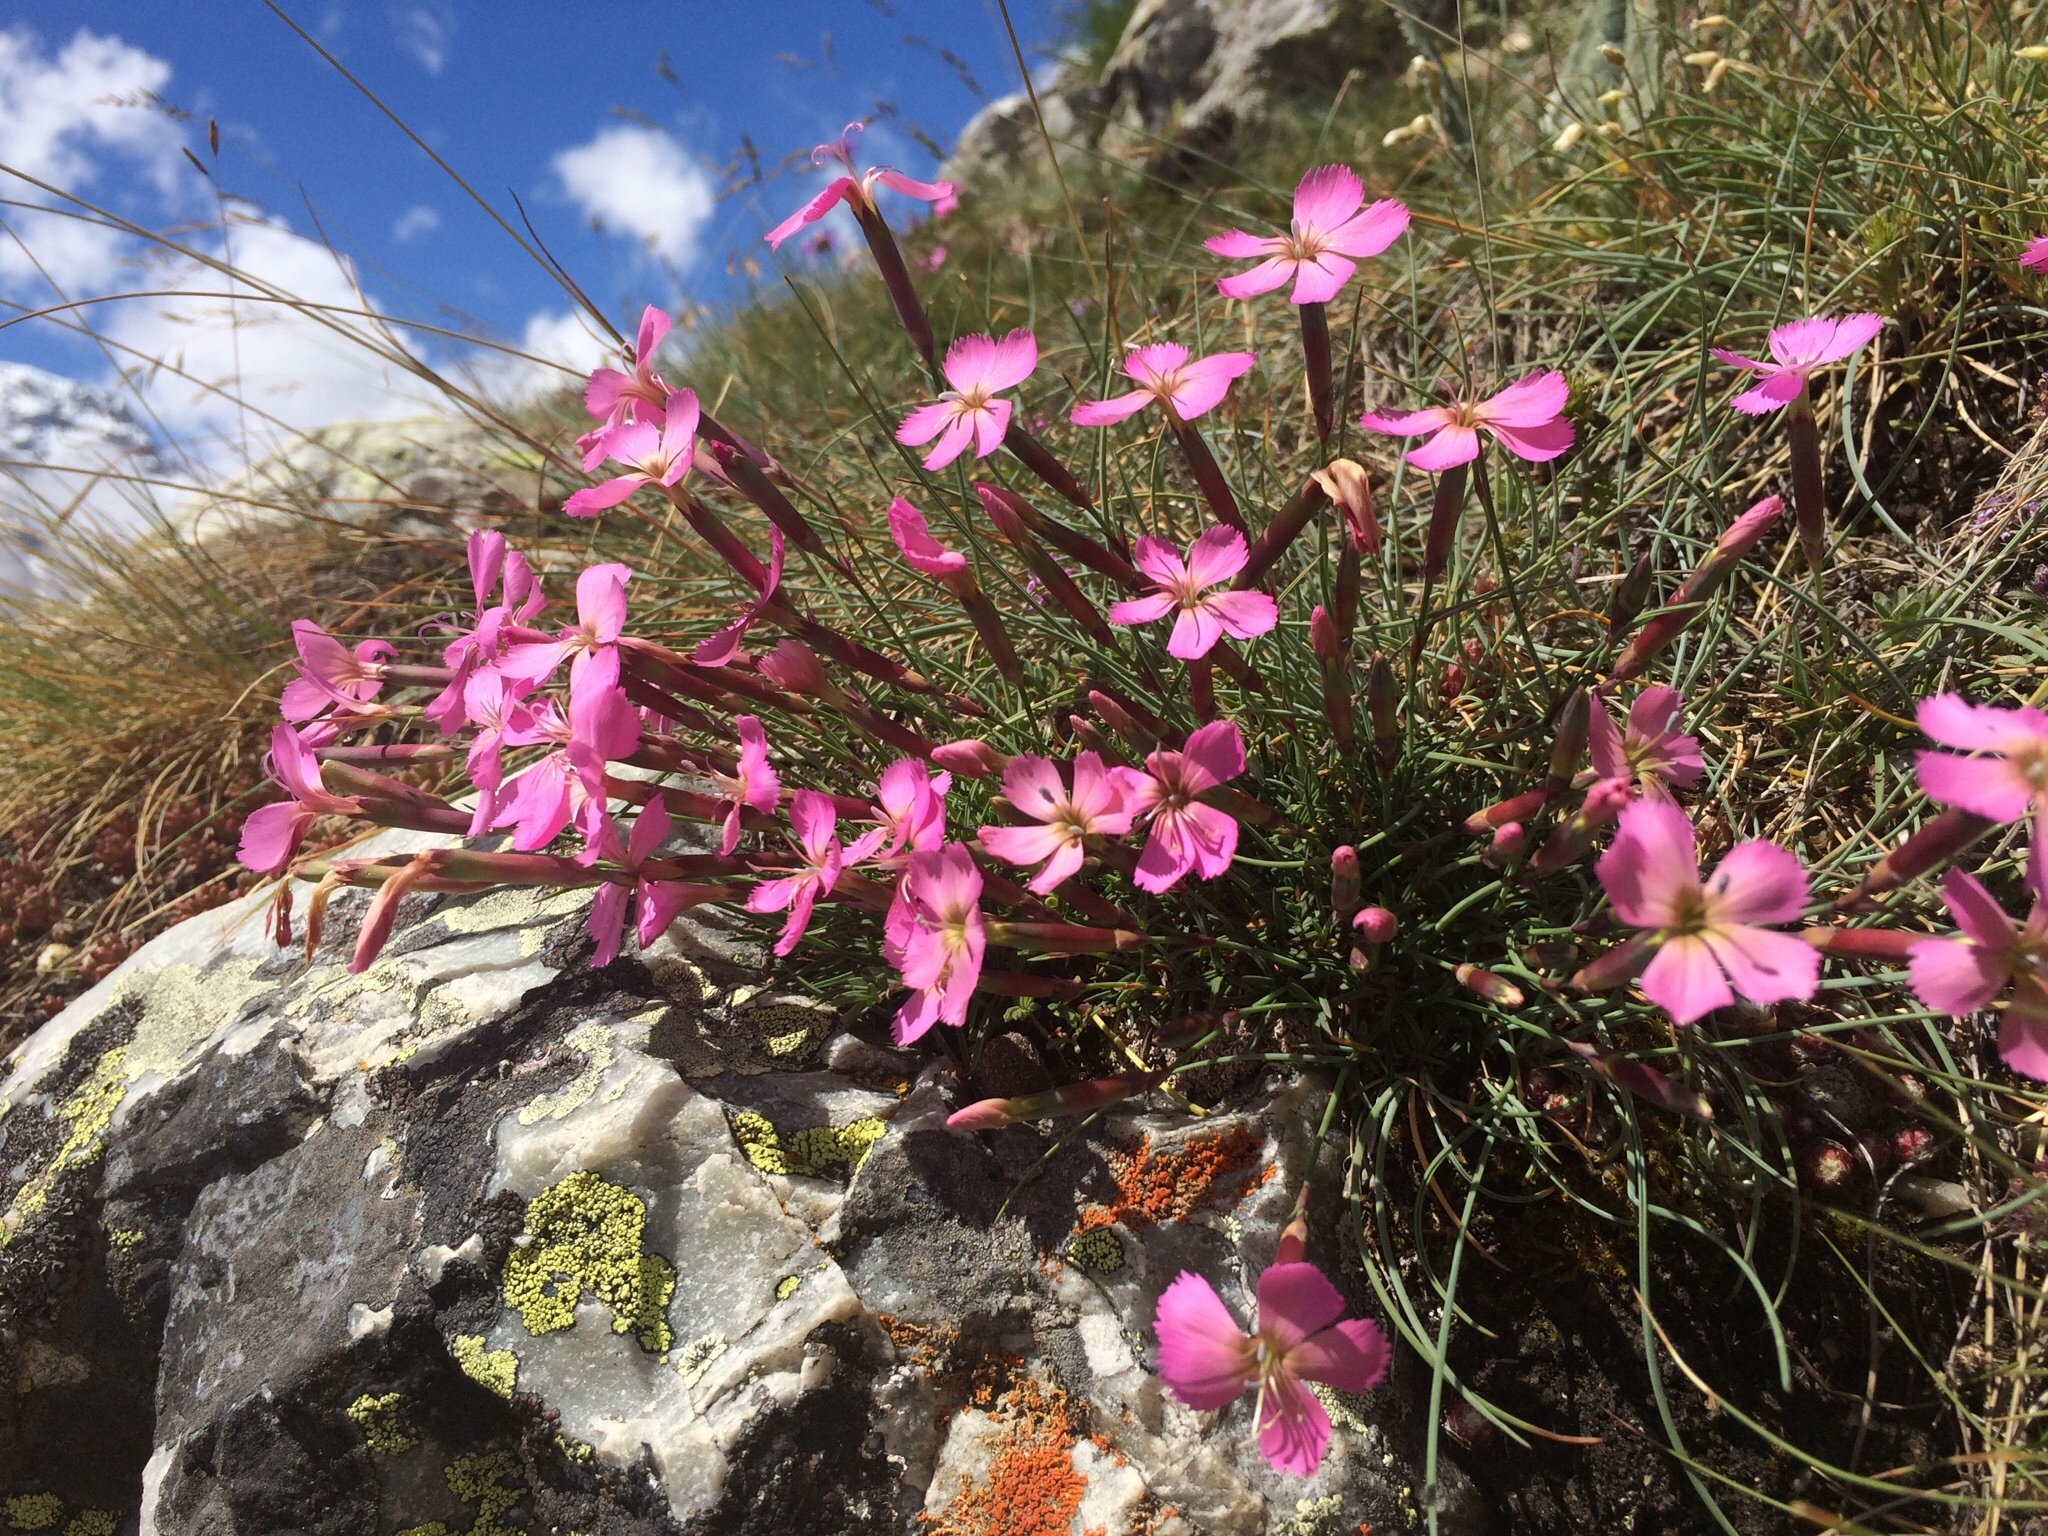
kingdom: Plantae
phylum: Tracheophyta
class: Magnoliopsida
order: Caryophyllales
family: Caryophyllaceae
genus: Dianthus
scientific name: Dianthus sylvestris
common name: Wood pink
